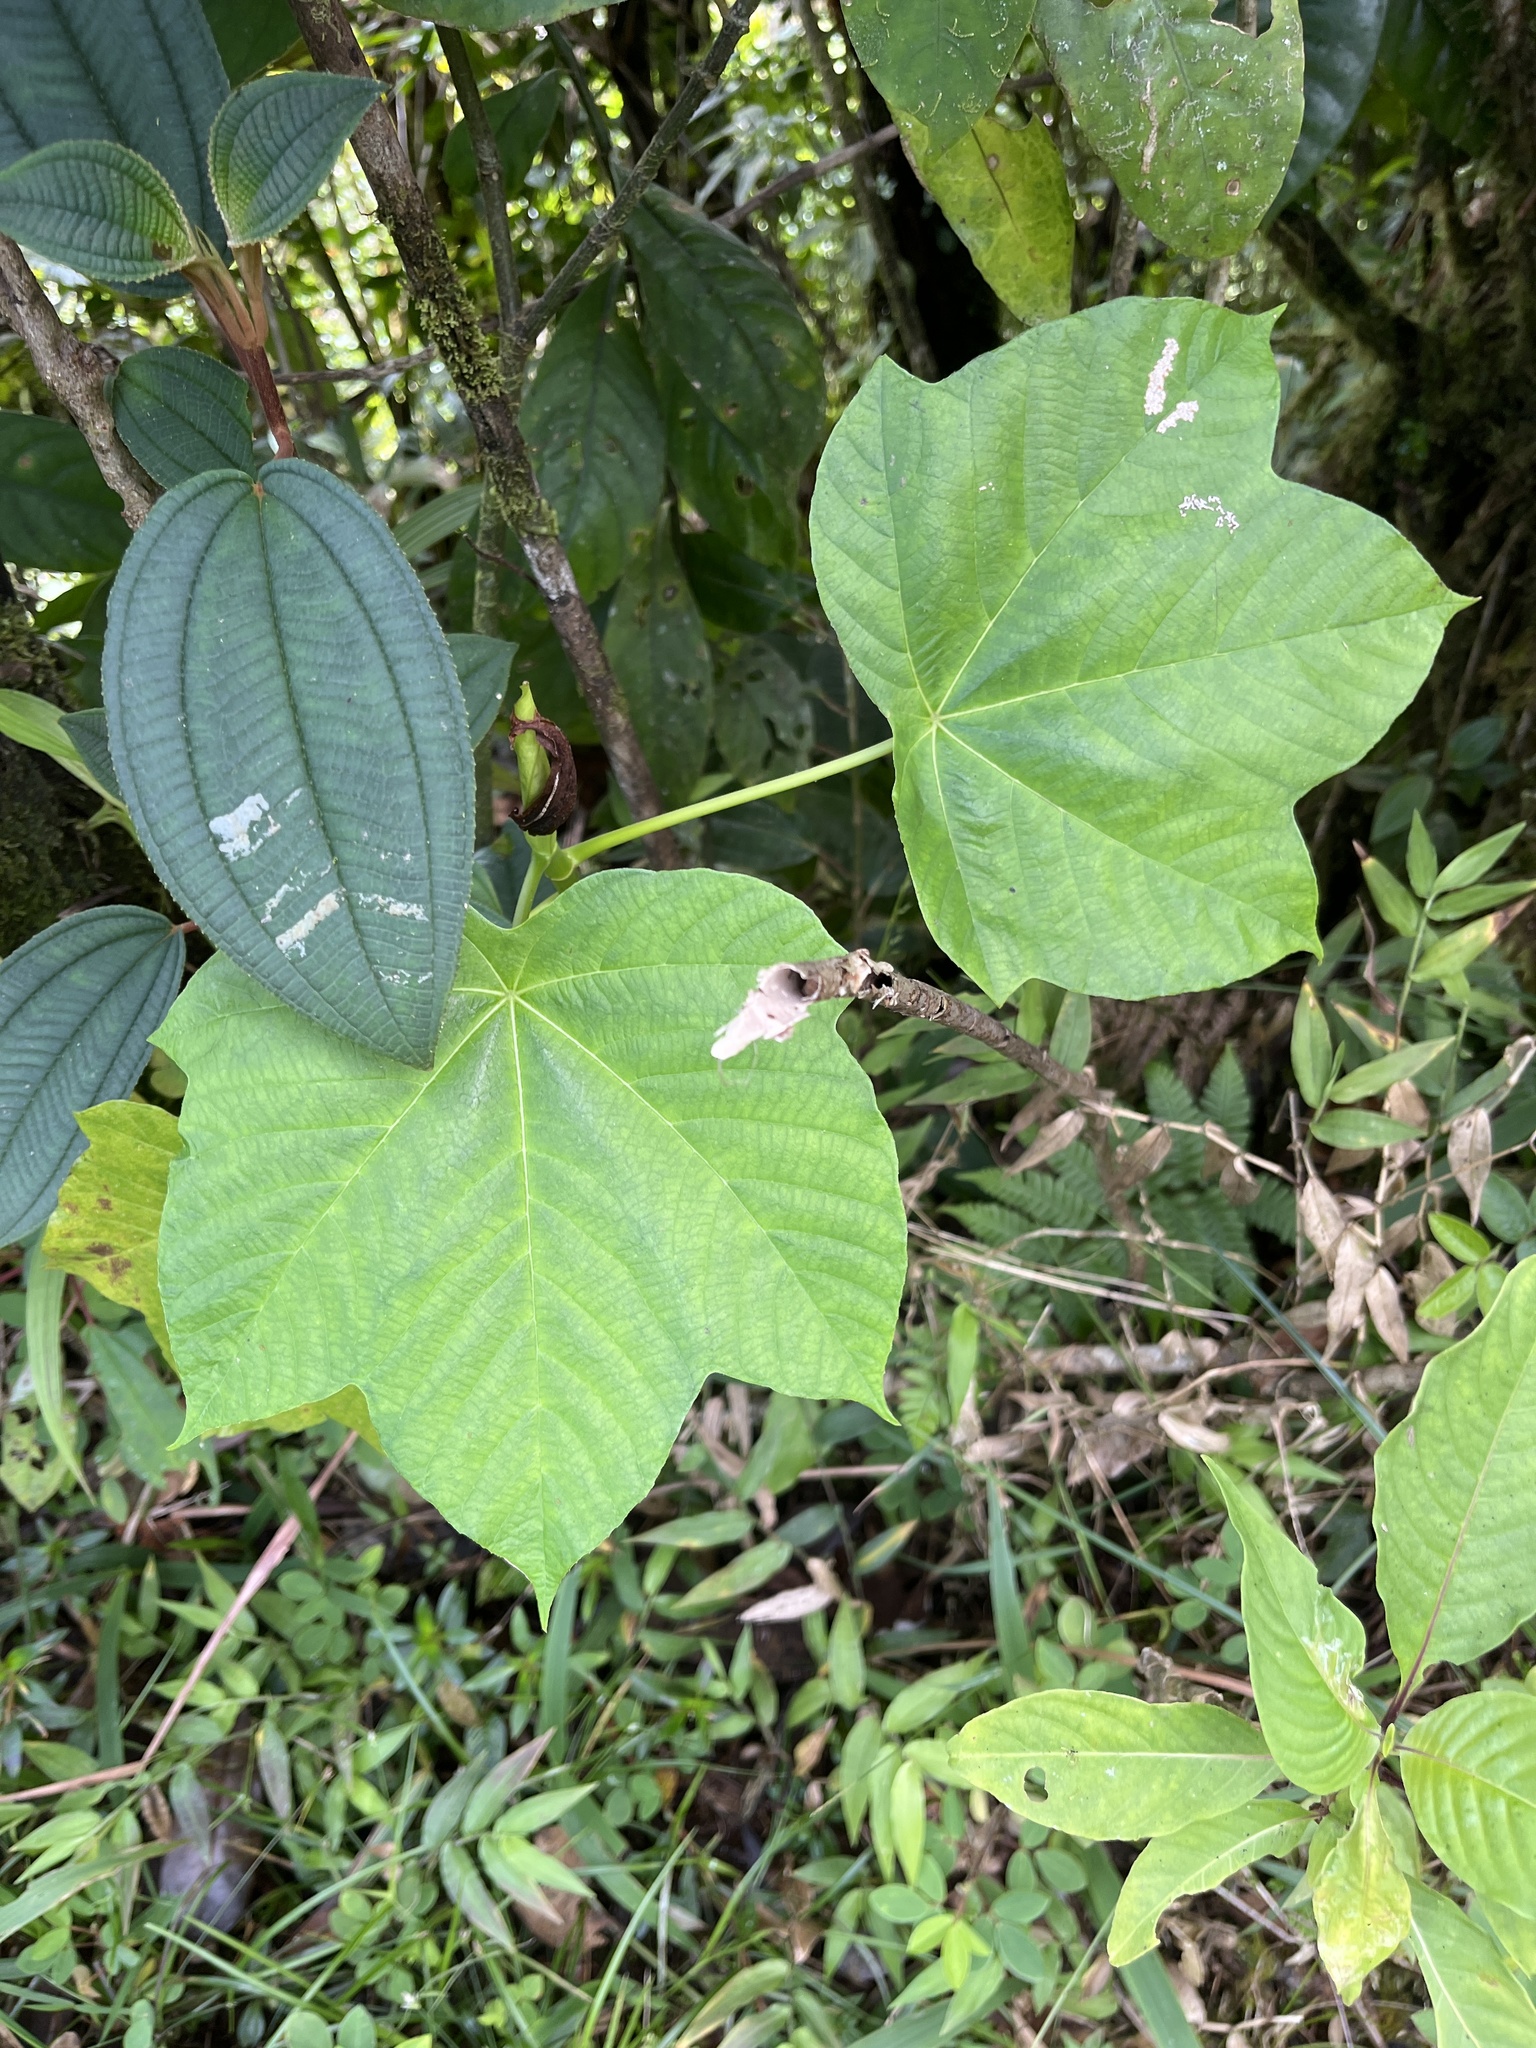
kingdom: Plantae
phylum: Tracheophyta
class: Magnoliopsida
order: Rosales
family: Urticaceae
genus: Cecropia
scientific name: Cecropia schreberiana
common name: Trumpet tree
